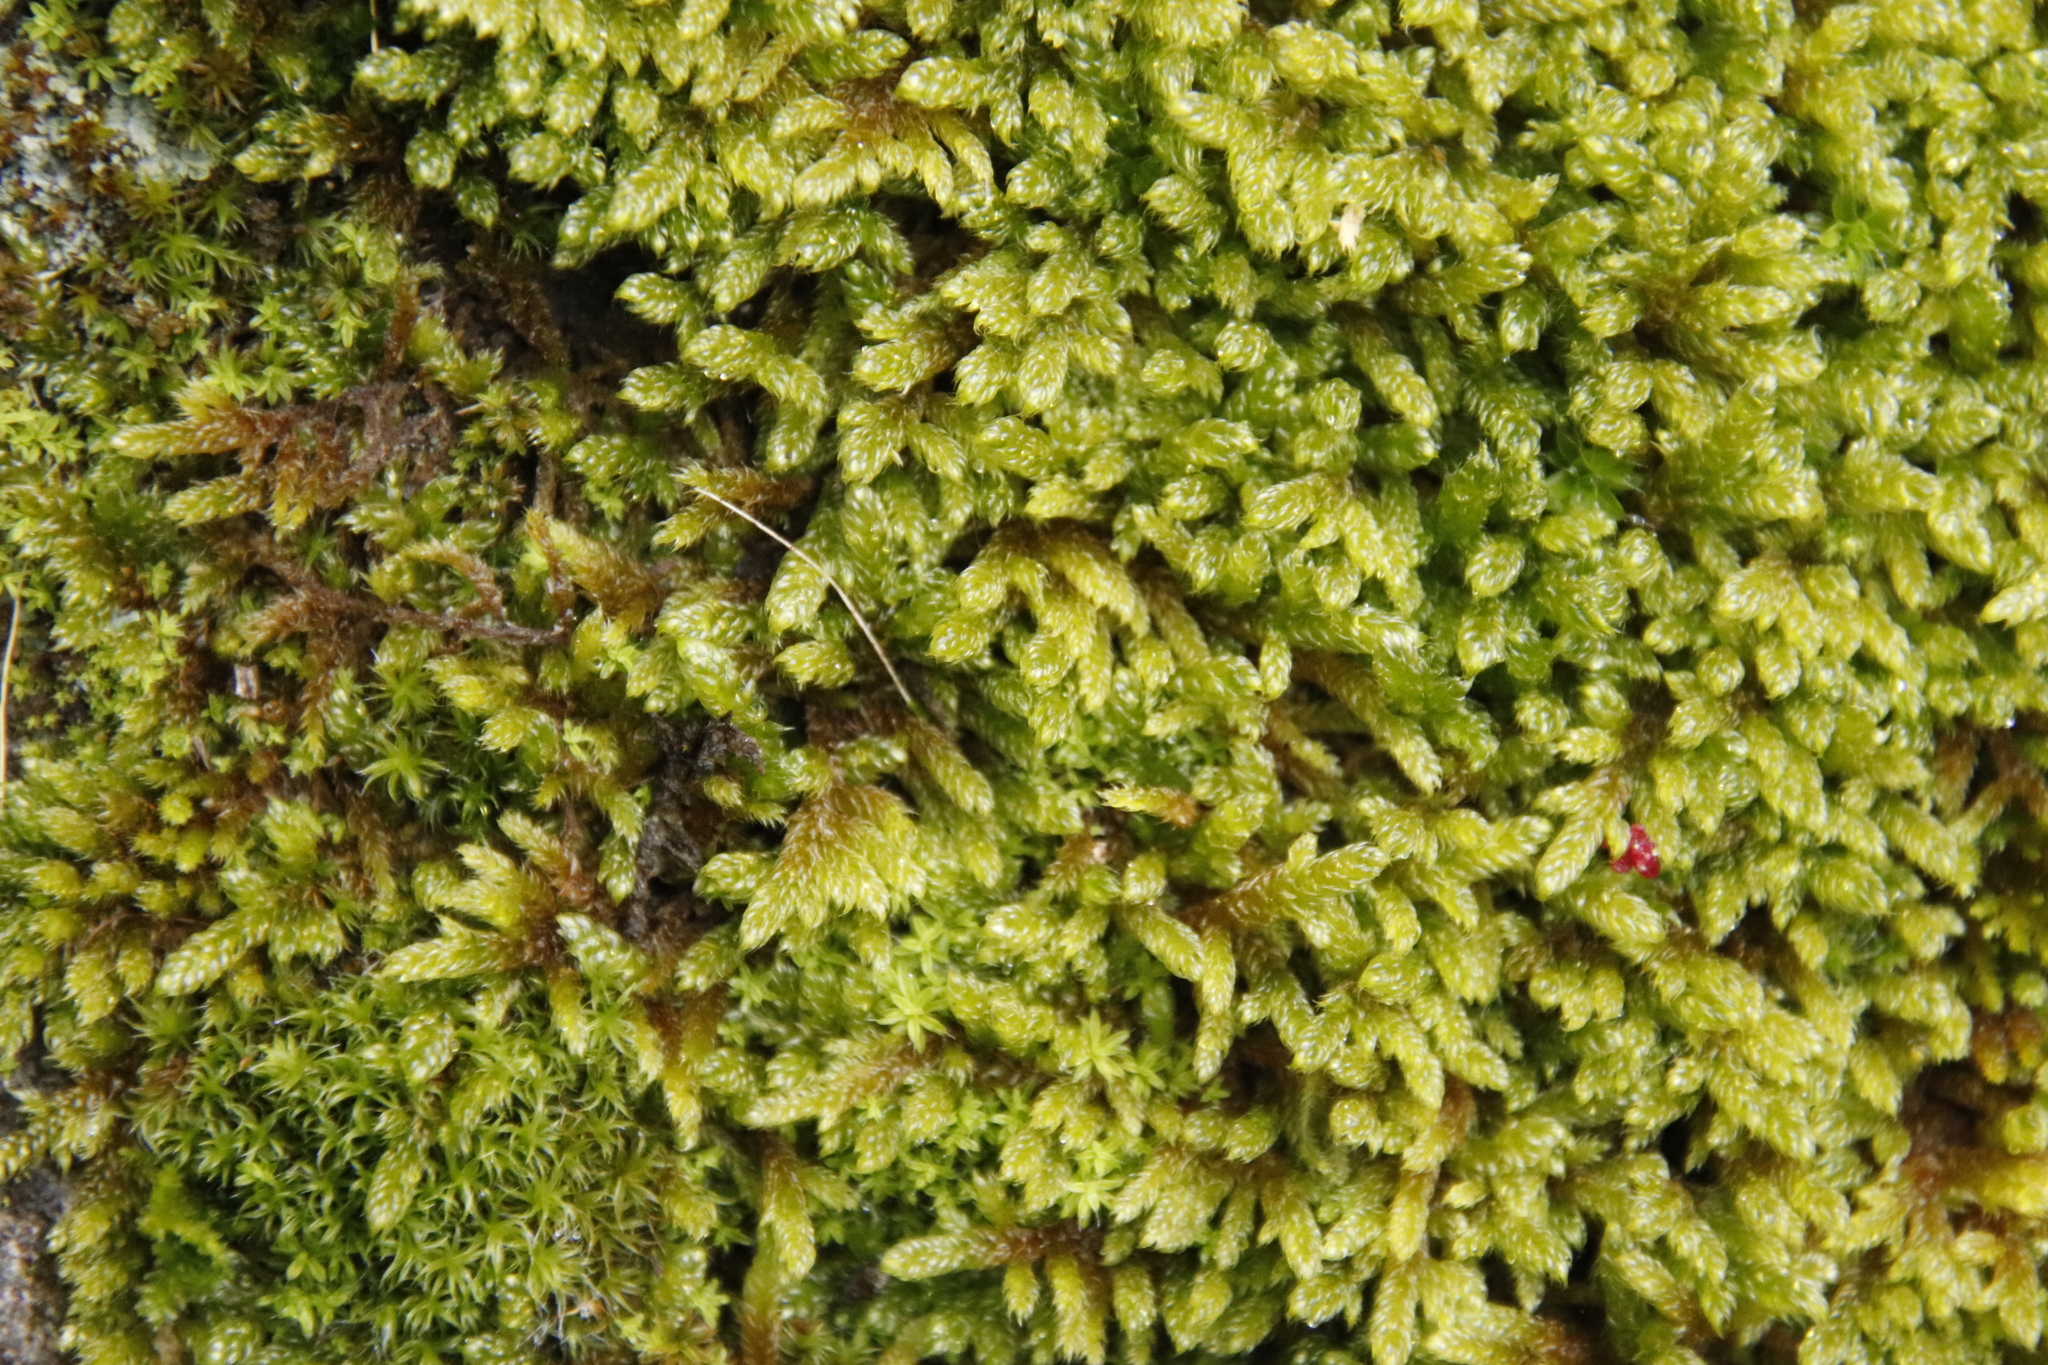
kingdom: Plantae
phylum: Bryophyta
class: Bryopsida
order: Hypnales
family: Hypnaceae
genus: Hypnum
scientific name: Hypnum cupressiforme
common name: Cypress-leaved plait-moss
